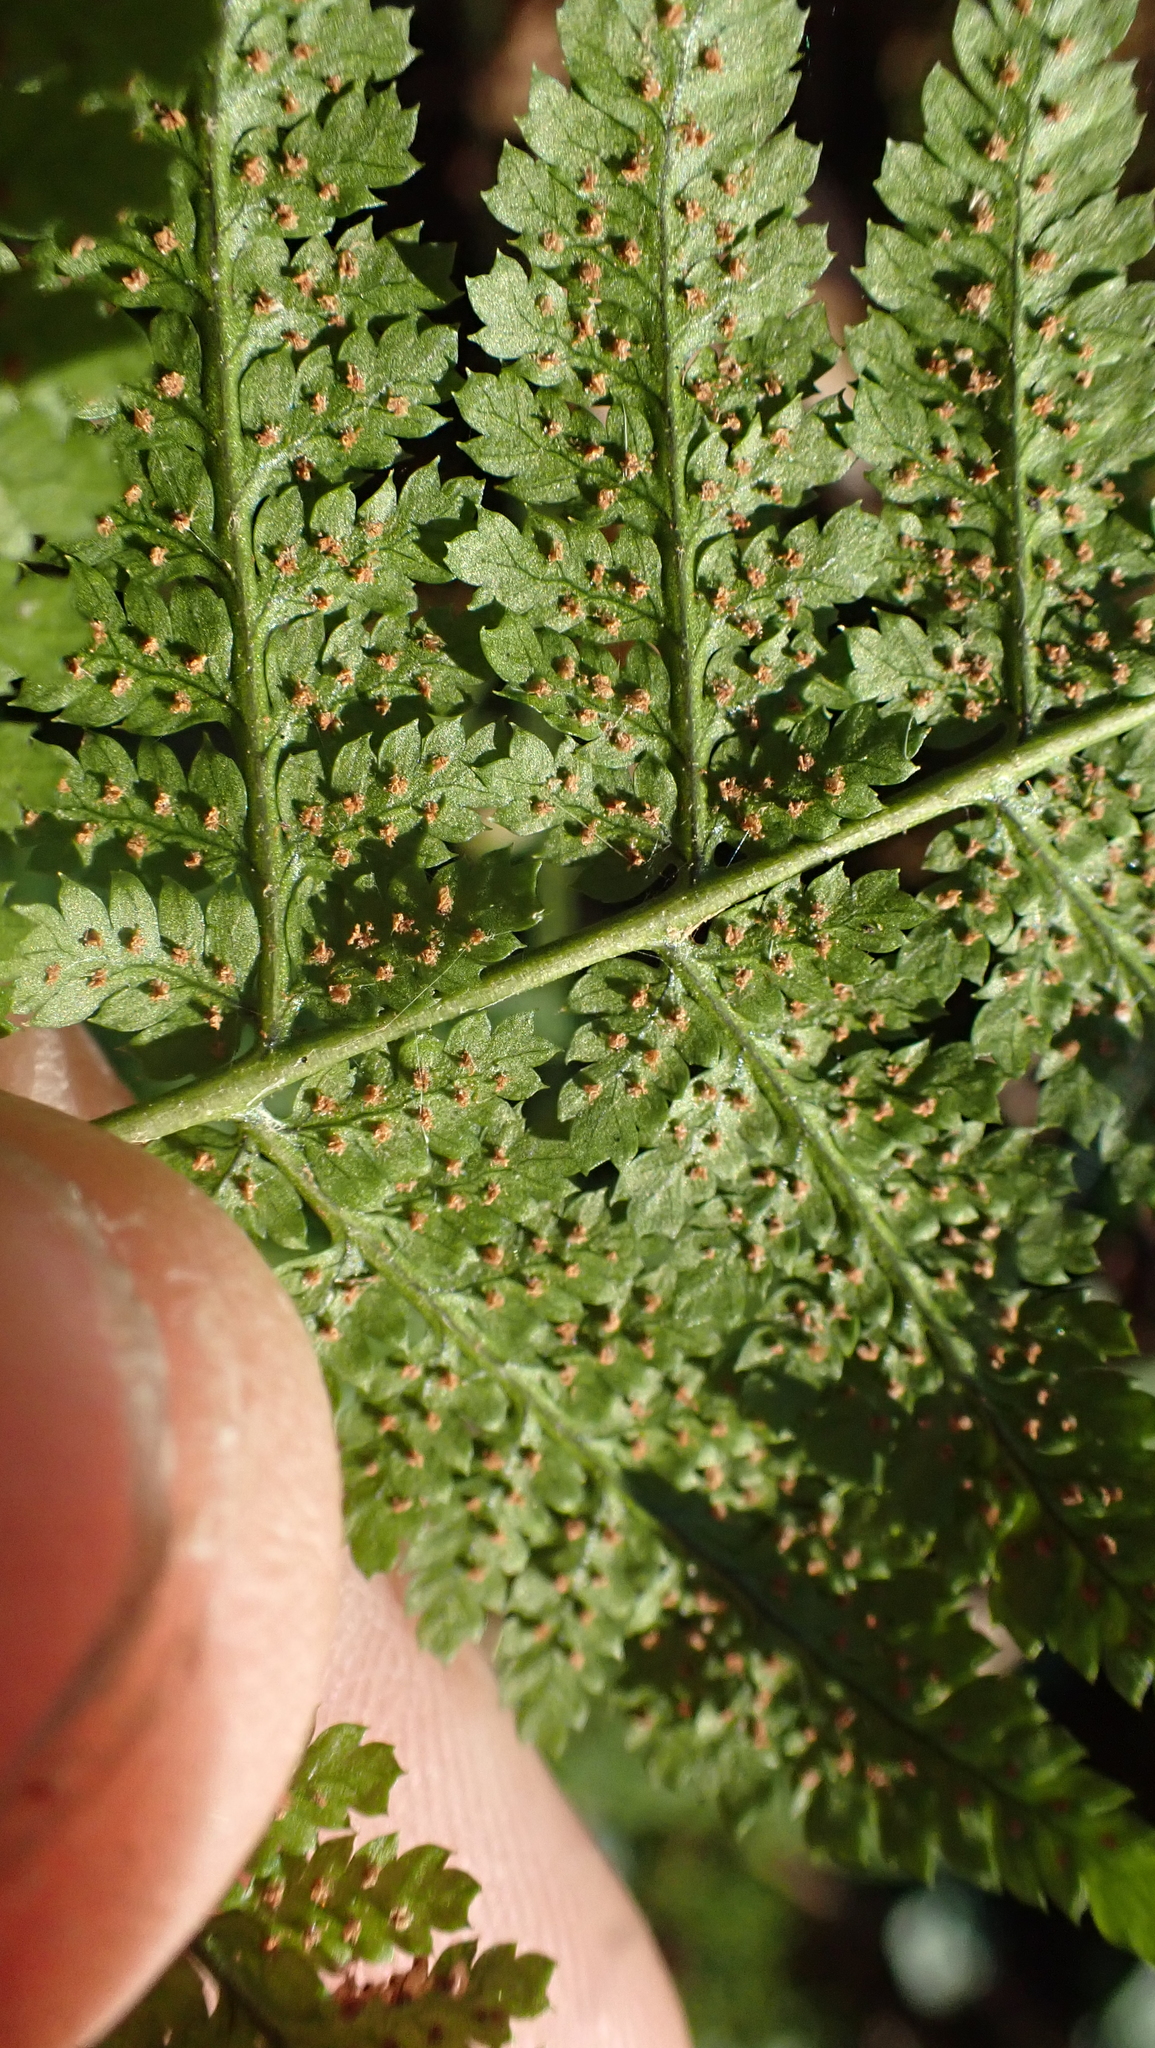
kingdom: Plantae
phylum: Tracheophyta
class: Polypodiopsida
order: Polypodiales
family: Dryopteridaceae
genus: Dryopteris
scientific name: Dryopteris intermedia
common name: Evergreen wood fern
